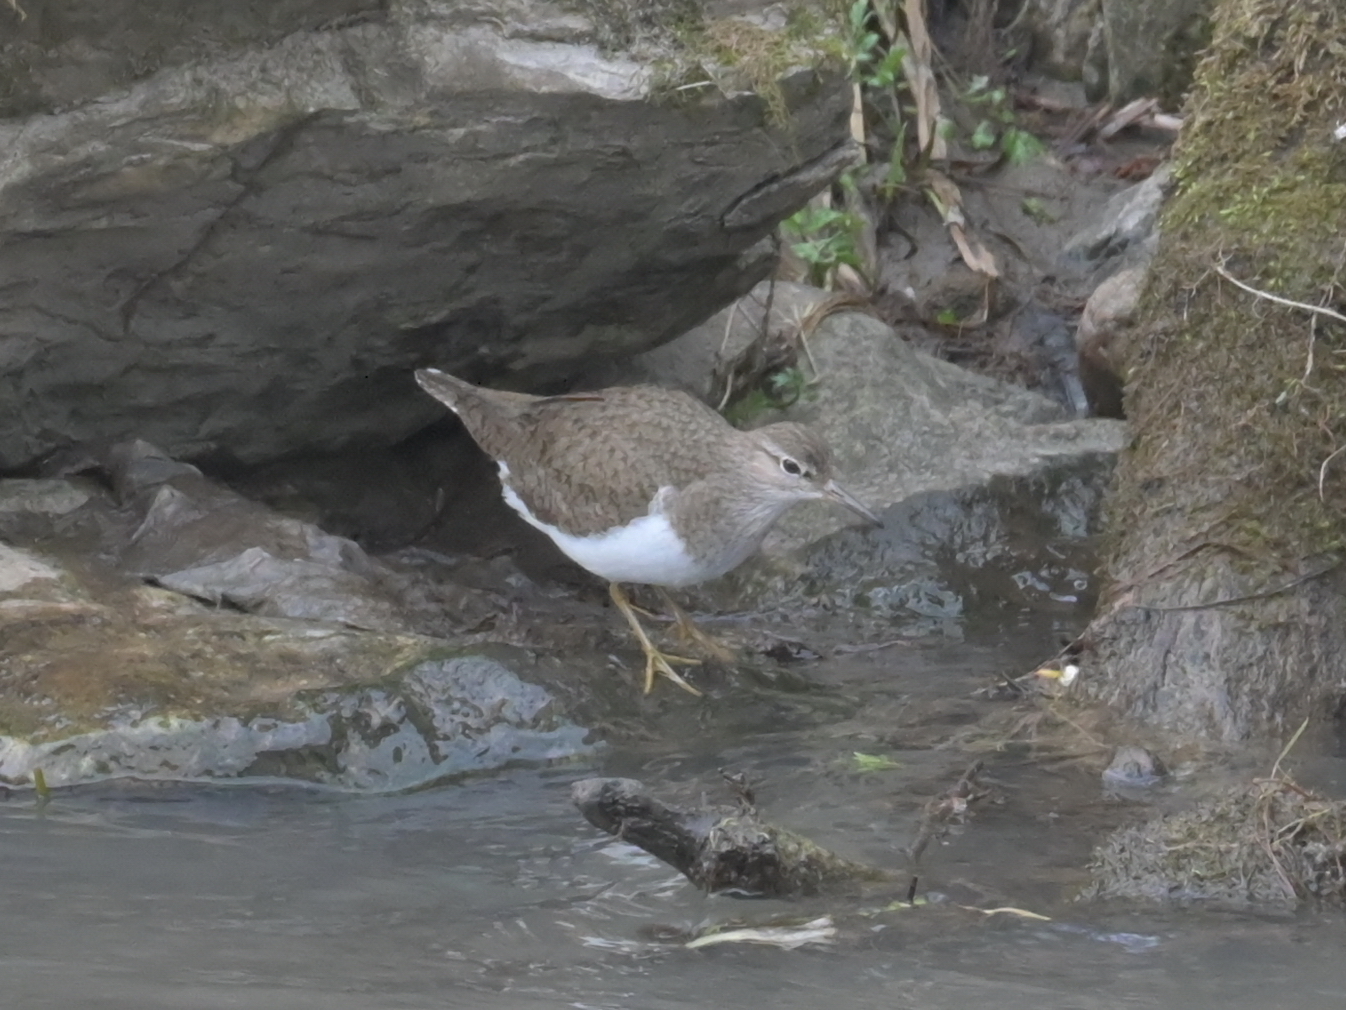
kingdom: Animalia
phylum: Chordata
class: Aves
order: Charadriiformes
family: Scolopacidae
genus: Actitis
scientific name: Actitis hypoleucos
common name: Common sandpiper
